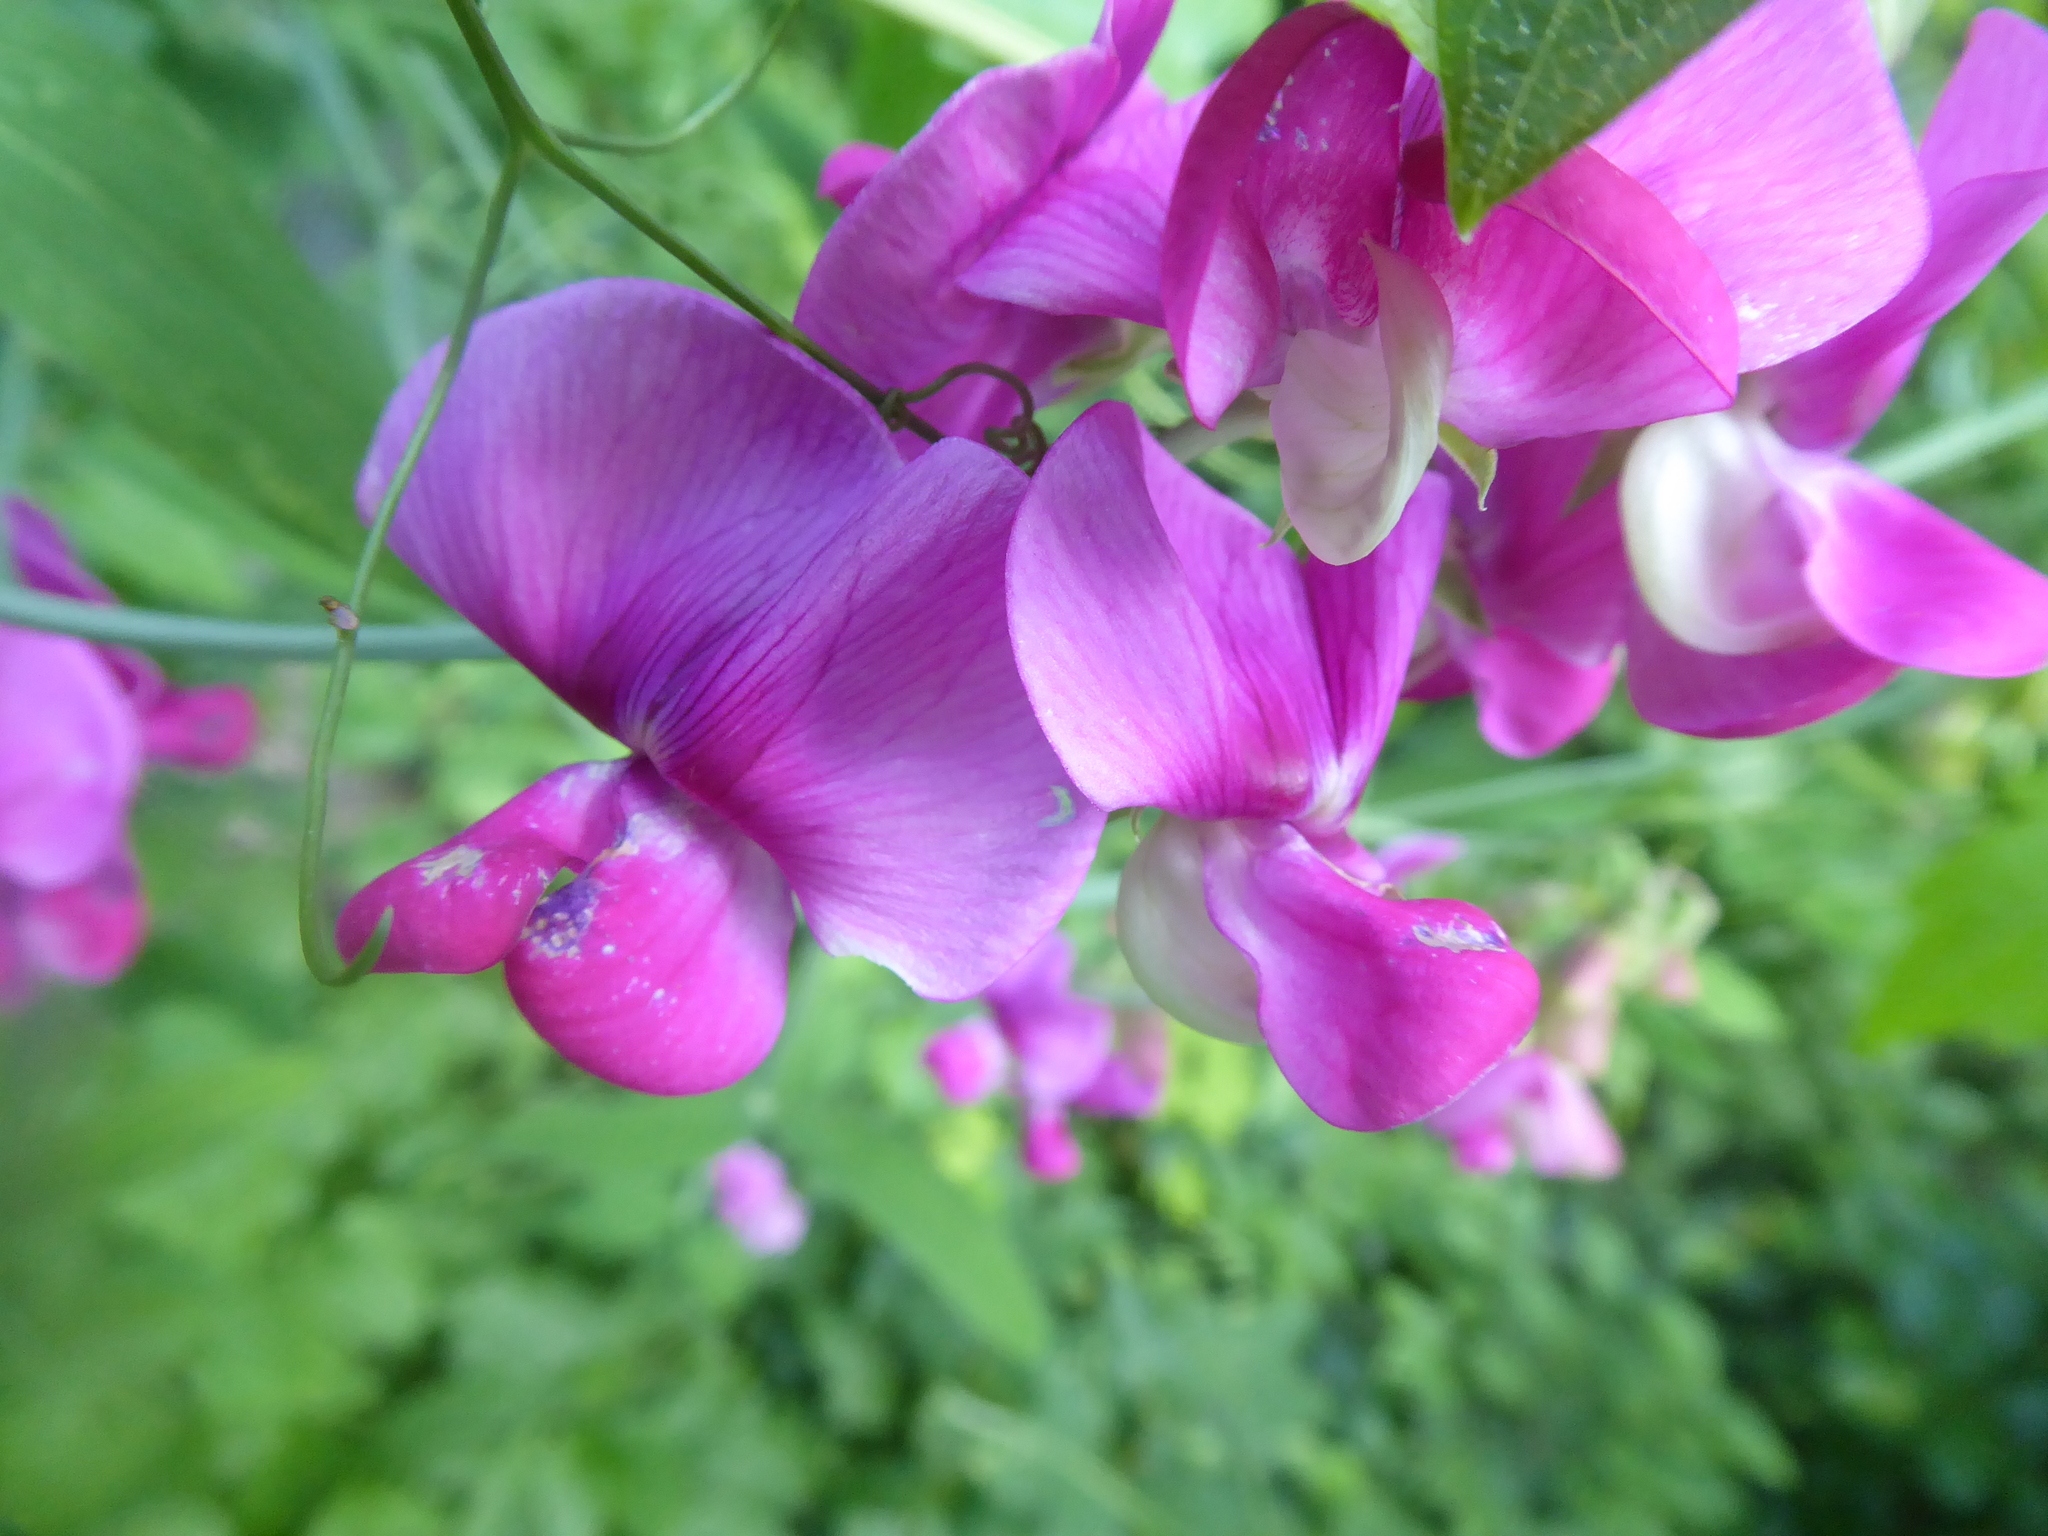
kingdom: Plantae
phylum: Tracheophyta
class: Magnoliopsida
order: Fabales
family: Fabaceae
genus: Lathyrus
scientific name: Lathyrus latifolius
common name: Perennial pea
